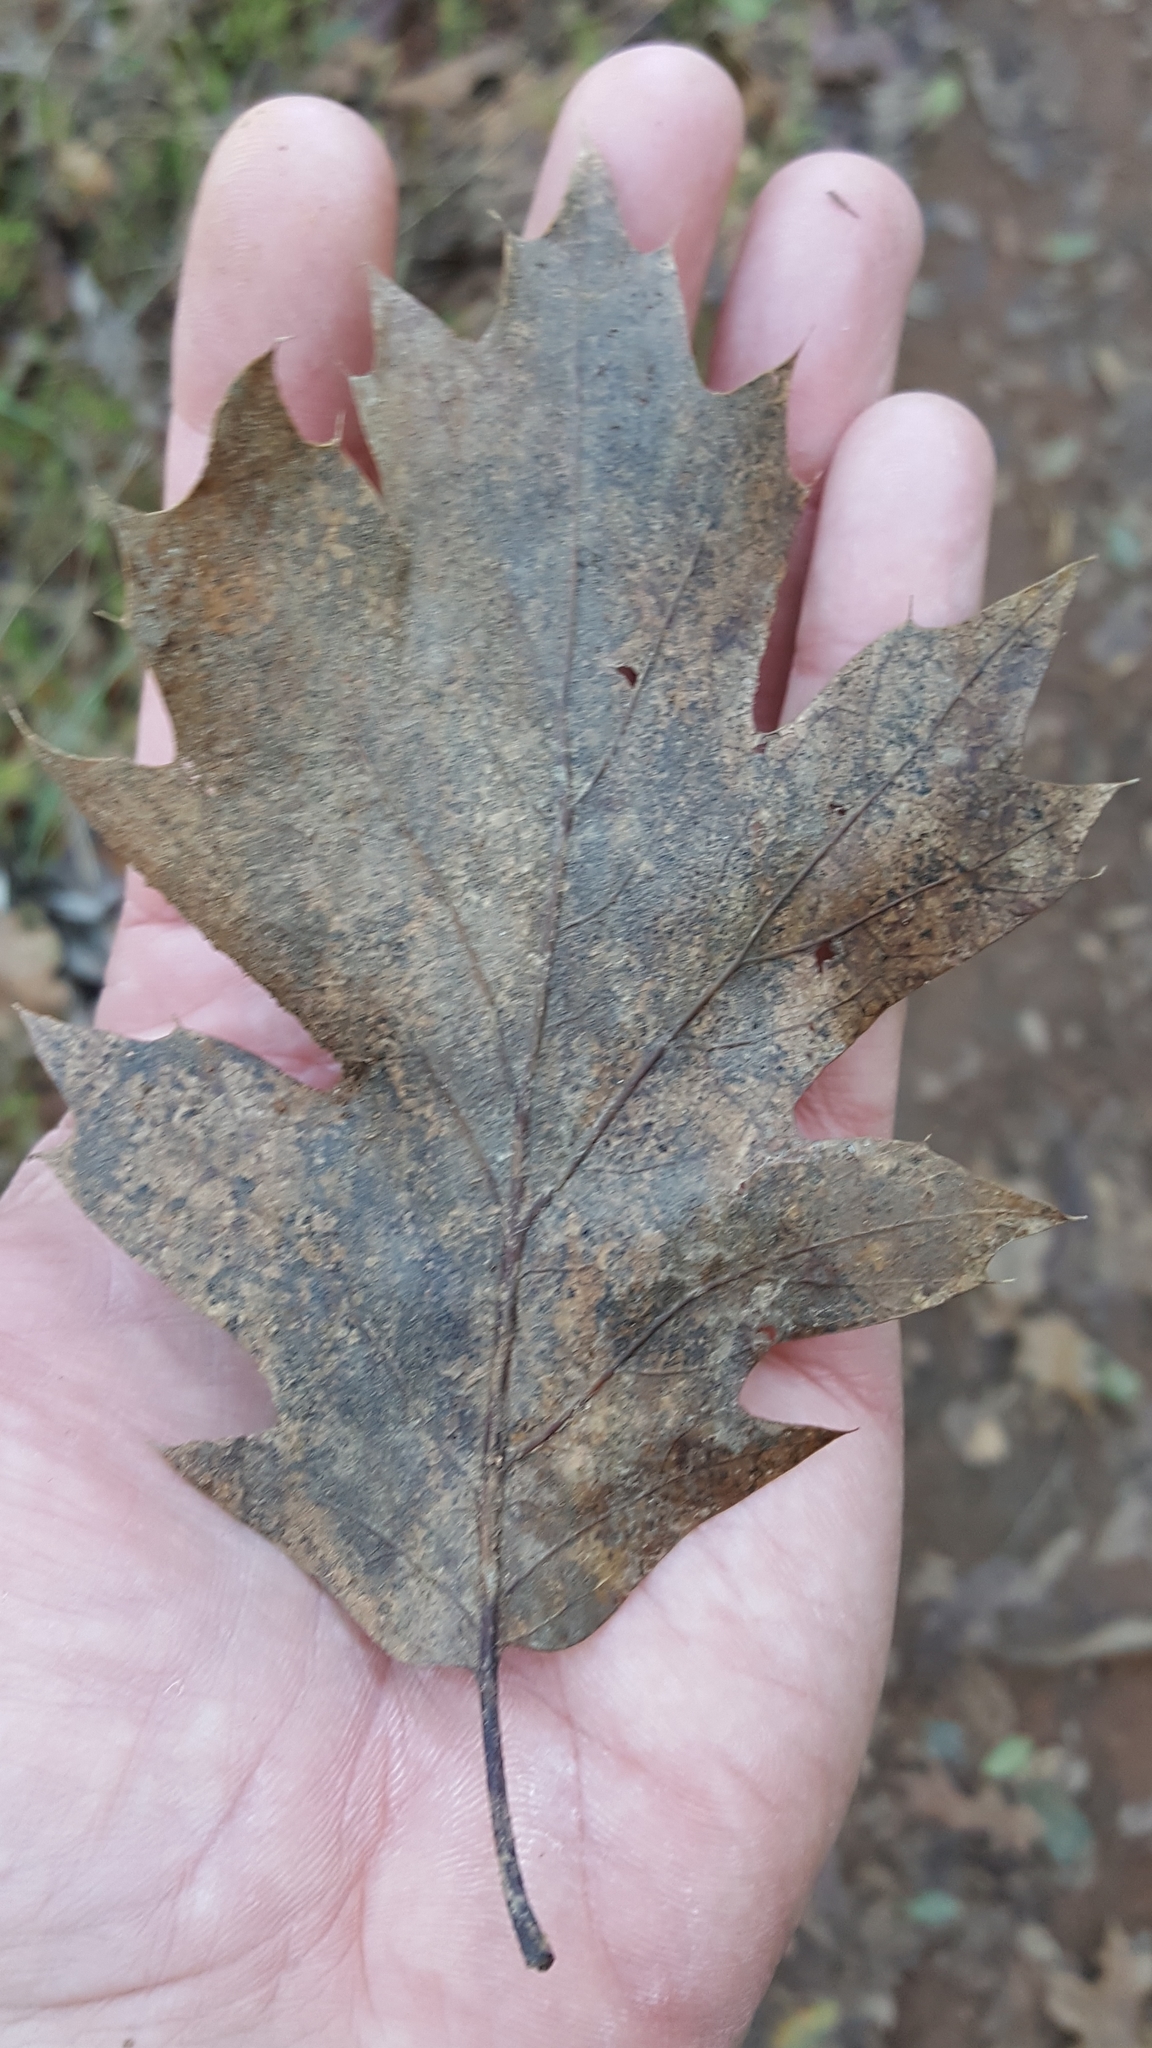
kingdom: Plantae
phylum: Tracheophyta
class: Magnoliopsida
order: Fagales
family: Fagaceae
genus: Quercus
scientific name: Quercus kelloggii
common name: California black oak
